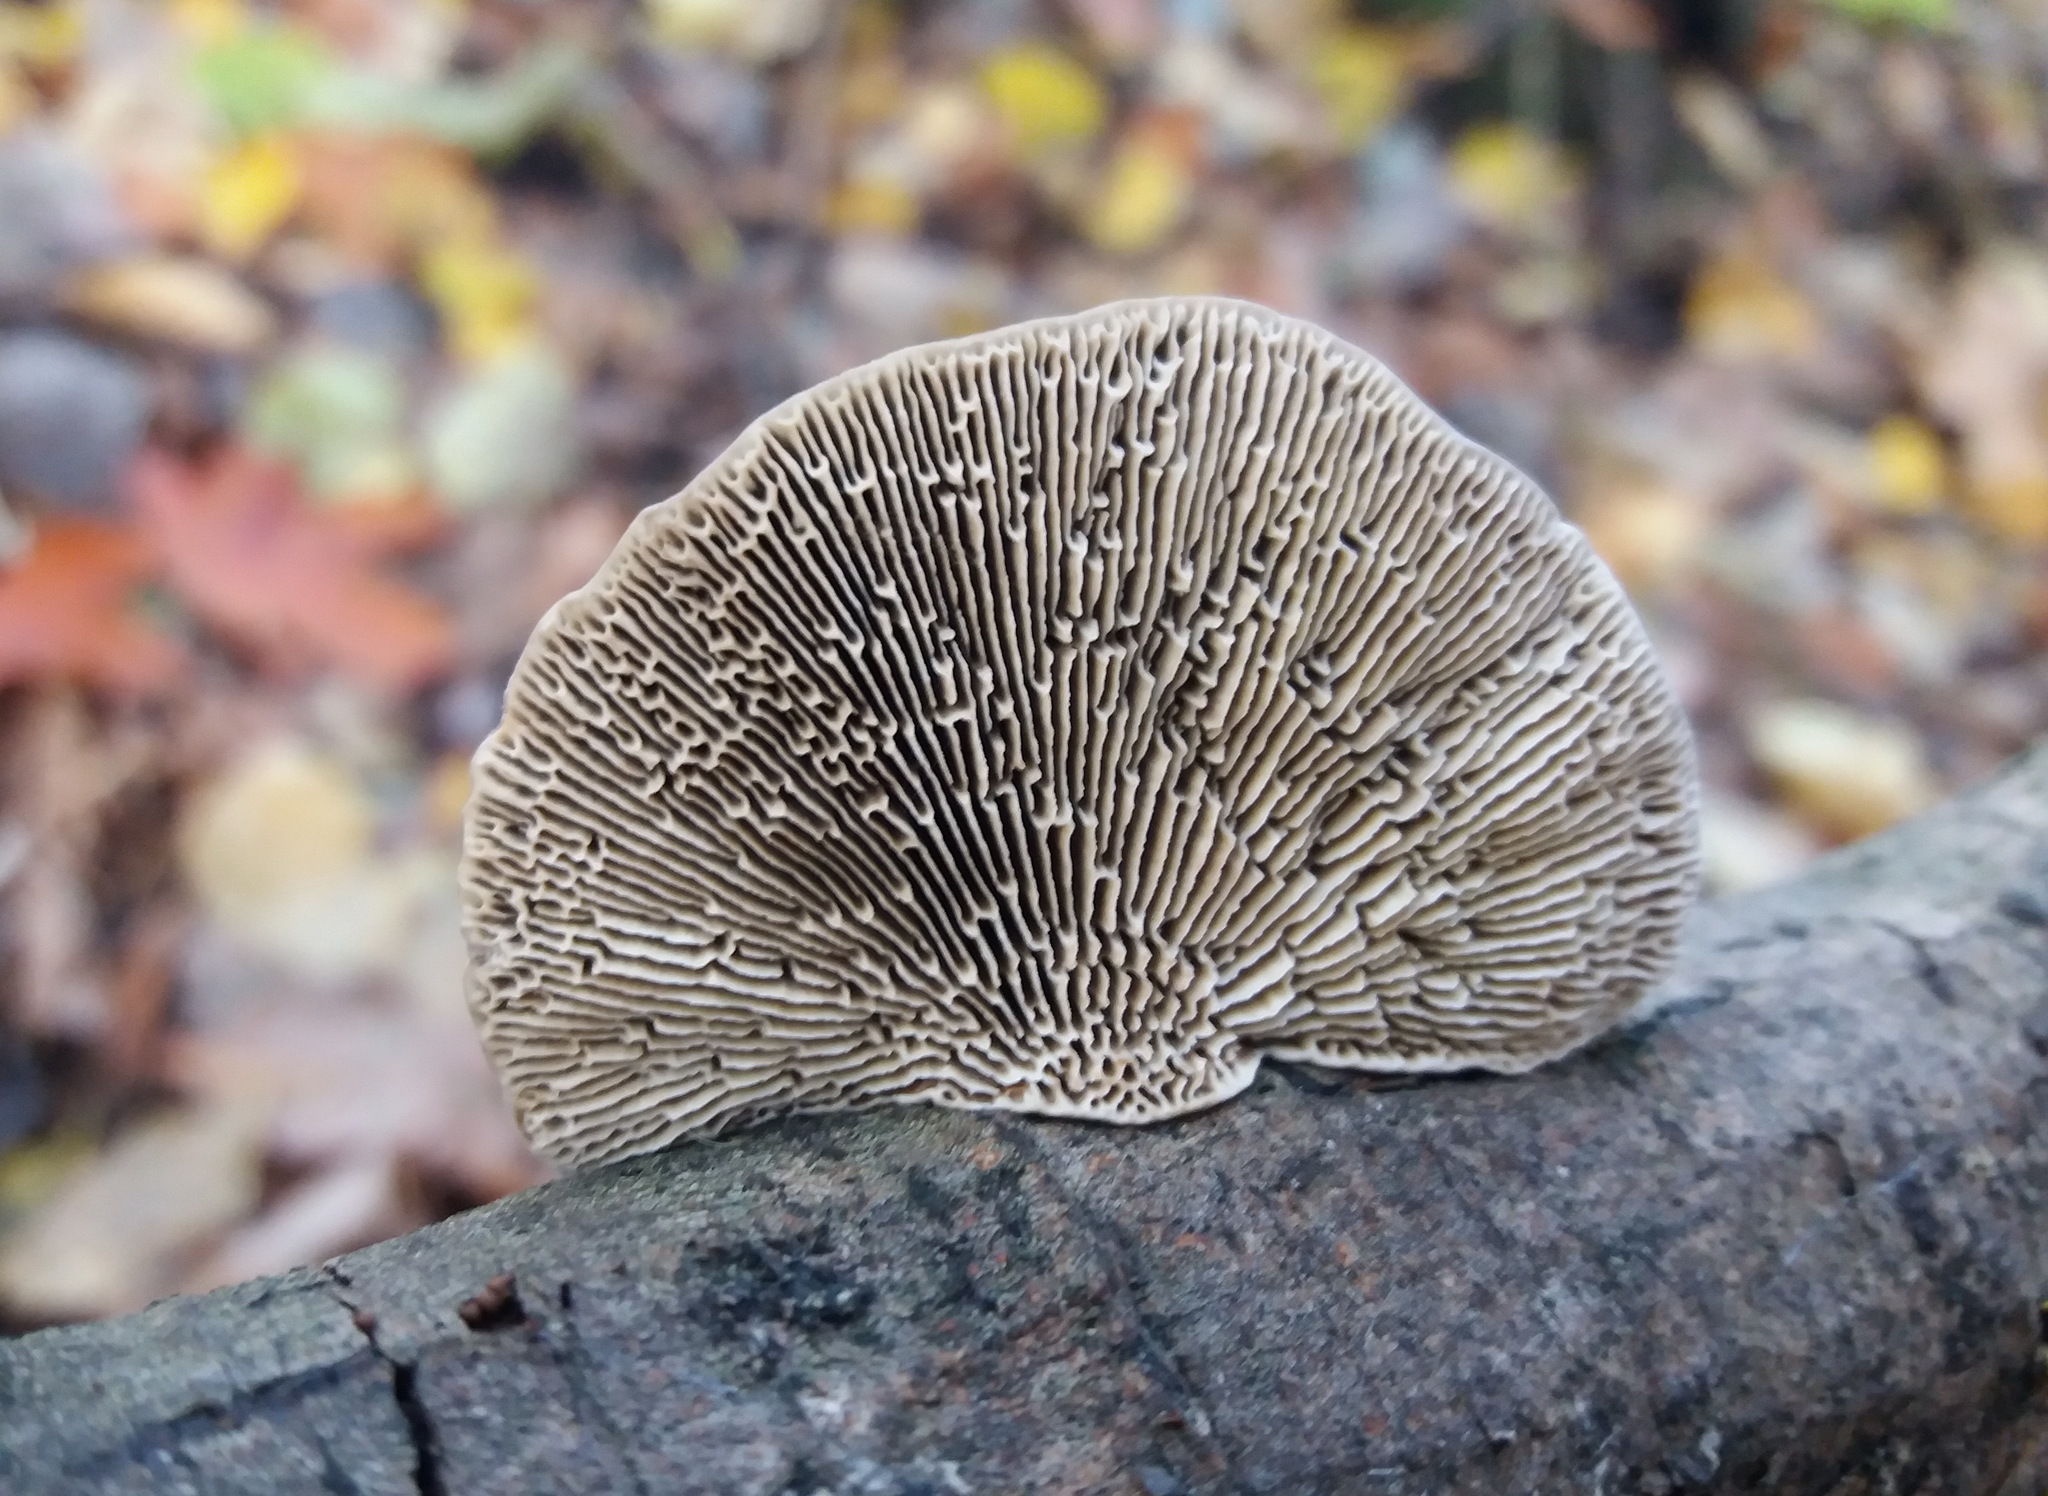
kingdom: Fungi
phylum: Basidiomycota
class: Agaricomycetes
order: Polyporales
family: Polyporaceae
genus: Daedaleopsis
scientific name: Daedaleopsis confragosa
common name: Blushing bracket
